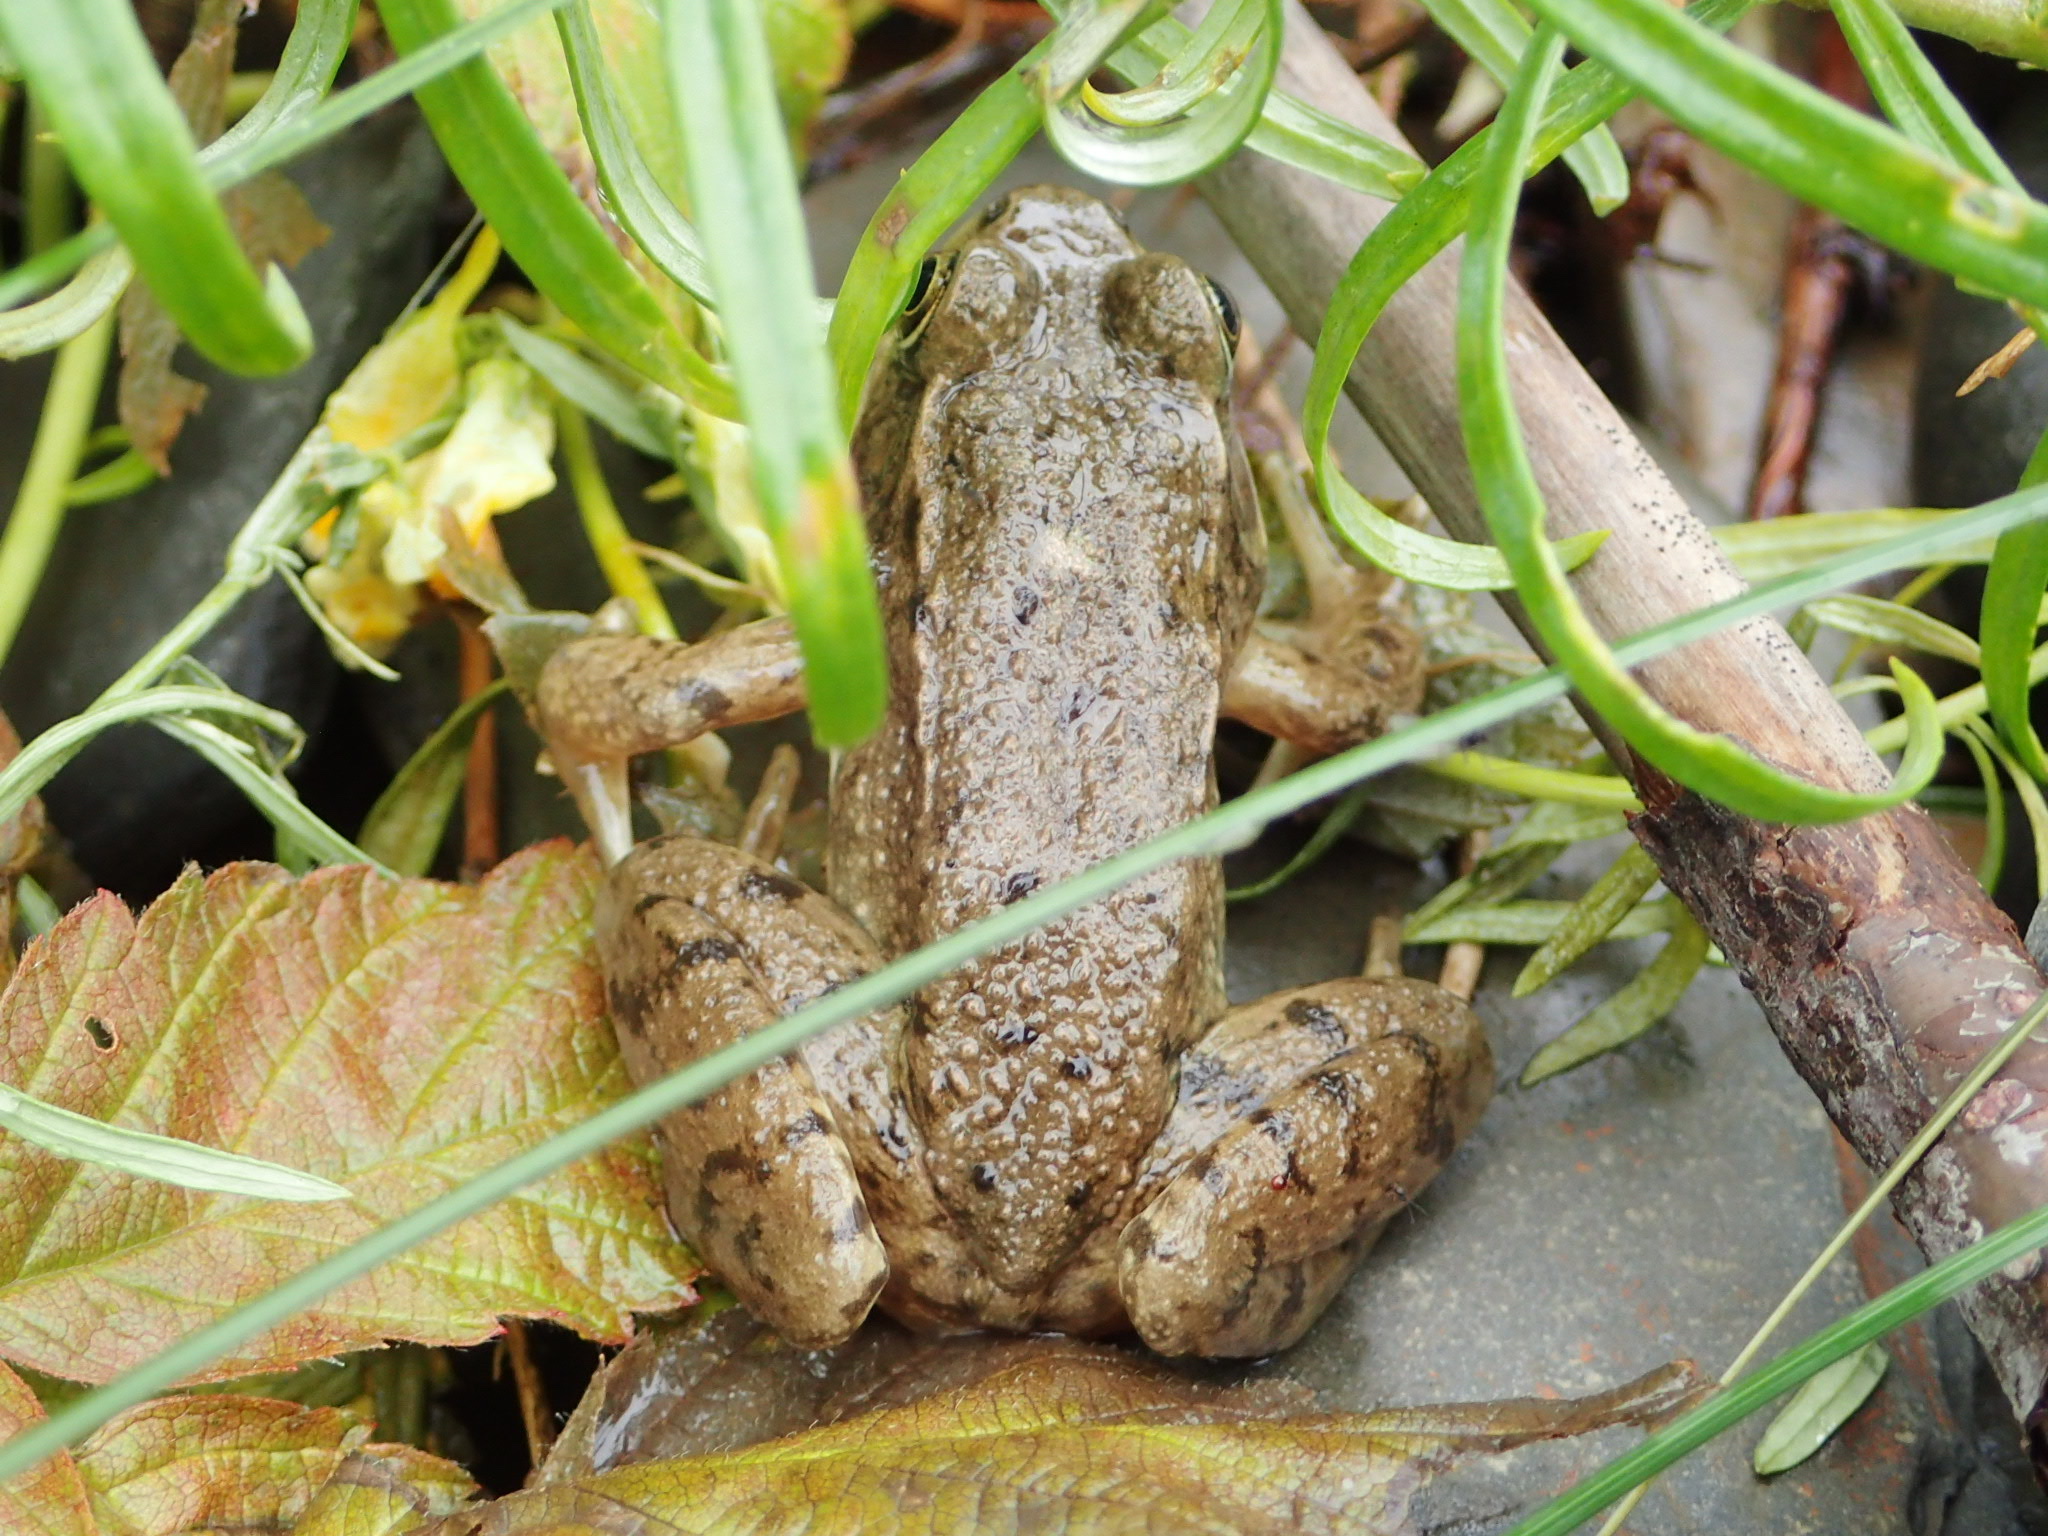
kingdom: Animalia
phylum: Chordata
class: Amphibia
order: Anura
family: Ranidae
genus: Lithobates
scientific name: Lithobates clamitans
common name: Green frog
